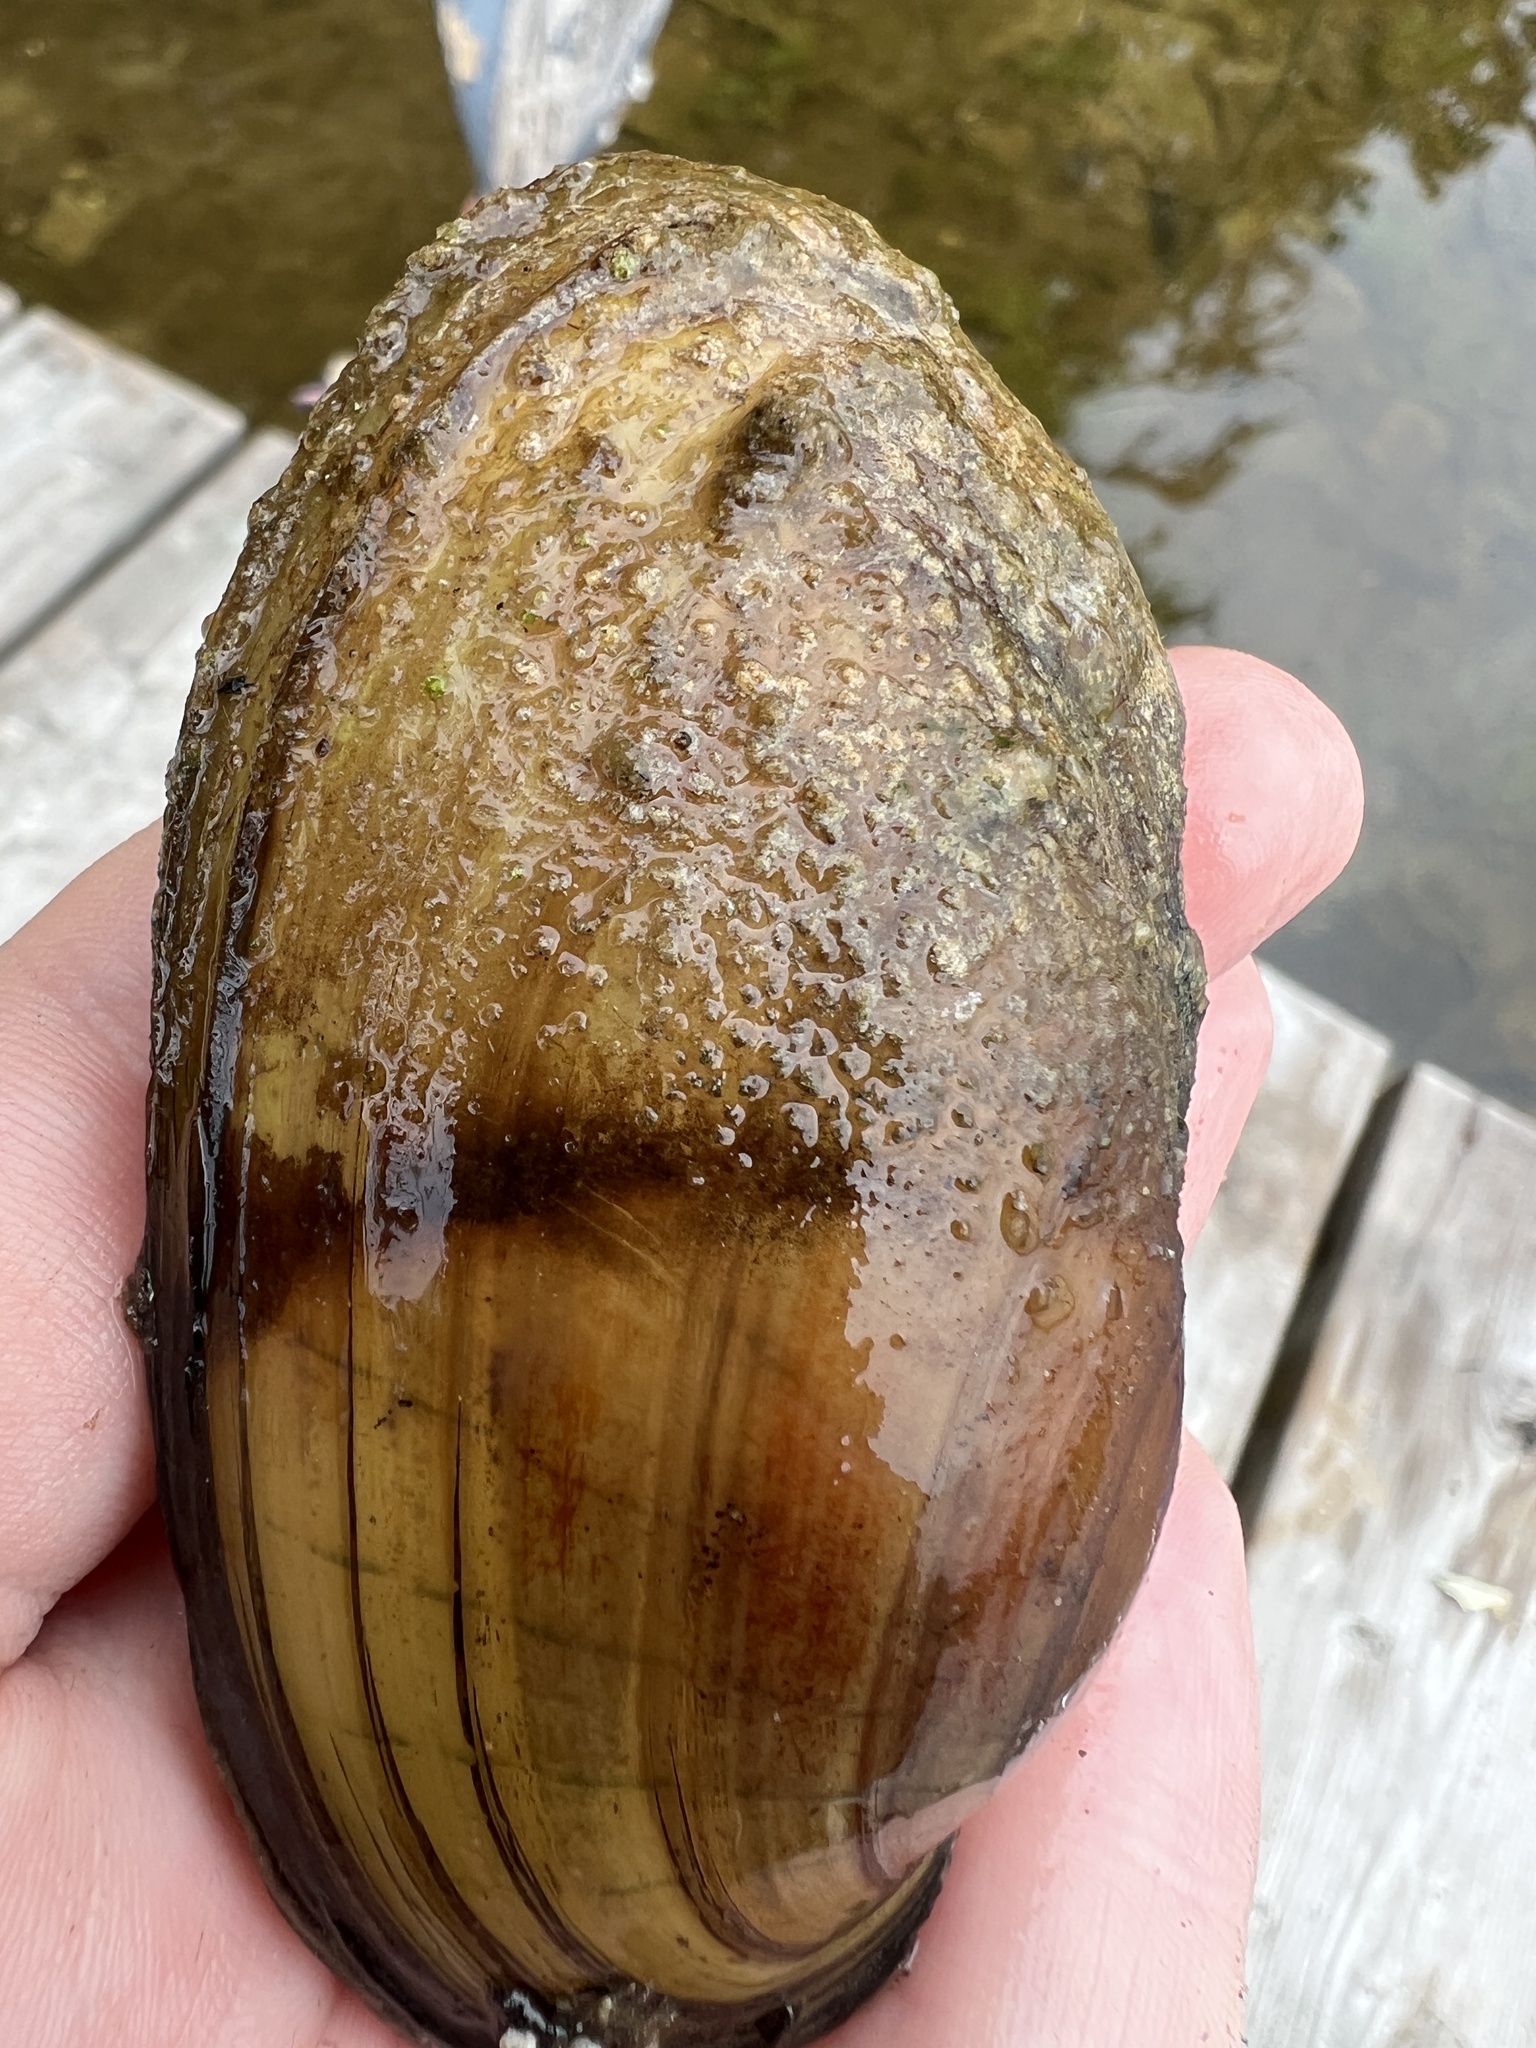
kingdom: Animalia
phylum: Mollusca
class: Bivalvia
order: Unionida
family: Unionidae
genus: Lampsilis
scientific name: Lampsilis siliquoidea
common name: Fatmucket
